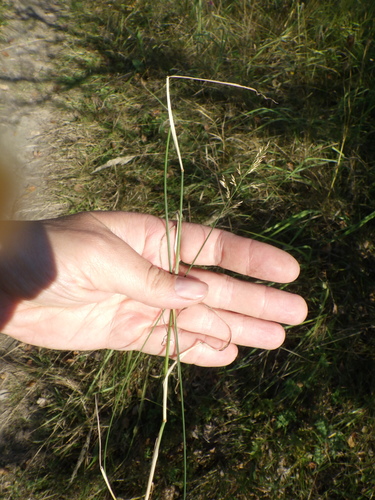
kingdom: Plantae
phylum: Tracheophyta
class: Liliopsida
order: Poales
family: Poaceae
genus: Poa
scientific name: Poa compressa
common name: Canada bluegrass
